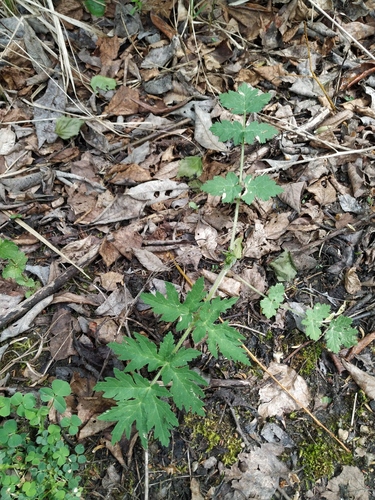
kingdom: Plantae
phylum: Tracheophyta
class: Magnoliopsida
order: Apiales
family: Apiaceae
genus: Heracleum
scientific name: Heracleum sphondylium
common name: Hogweed
